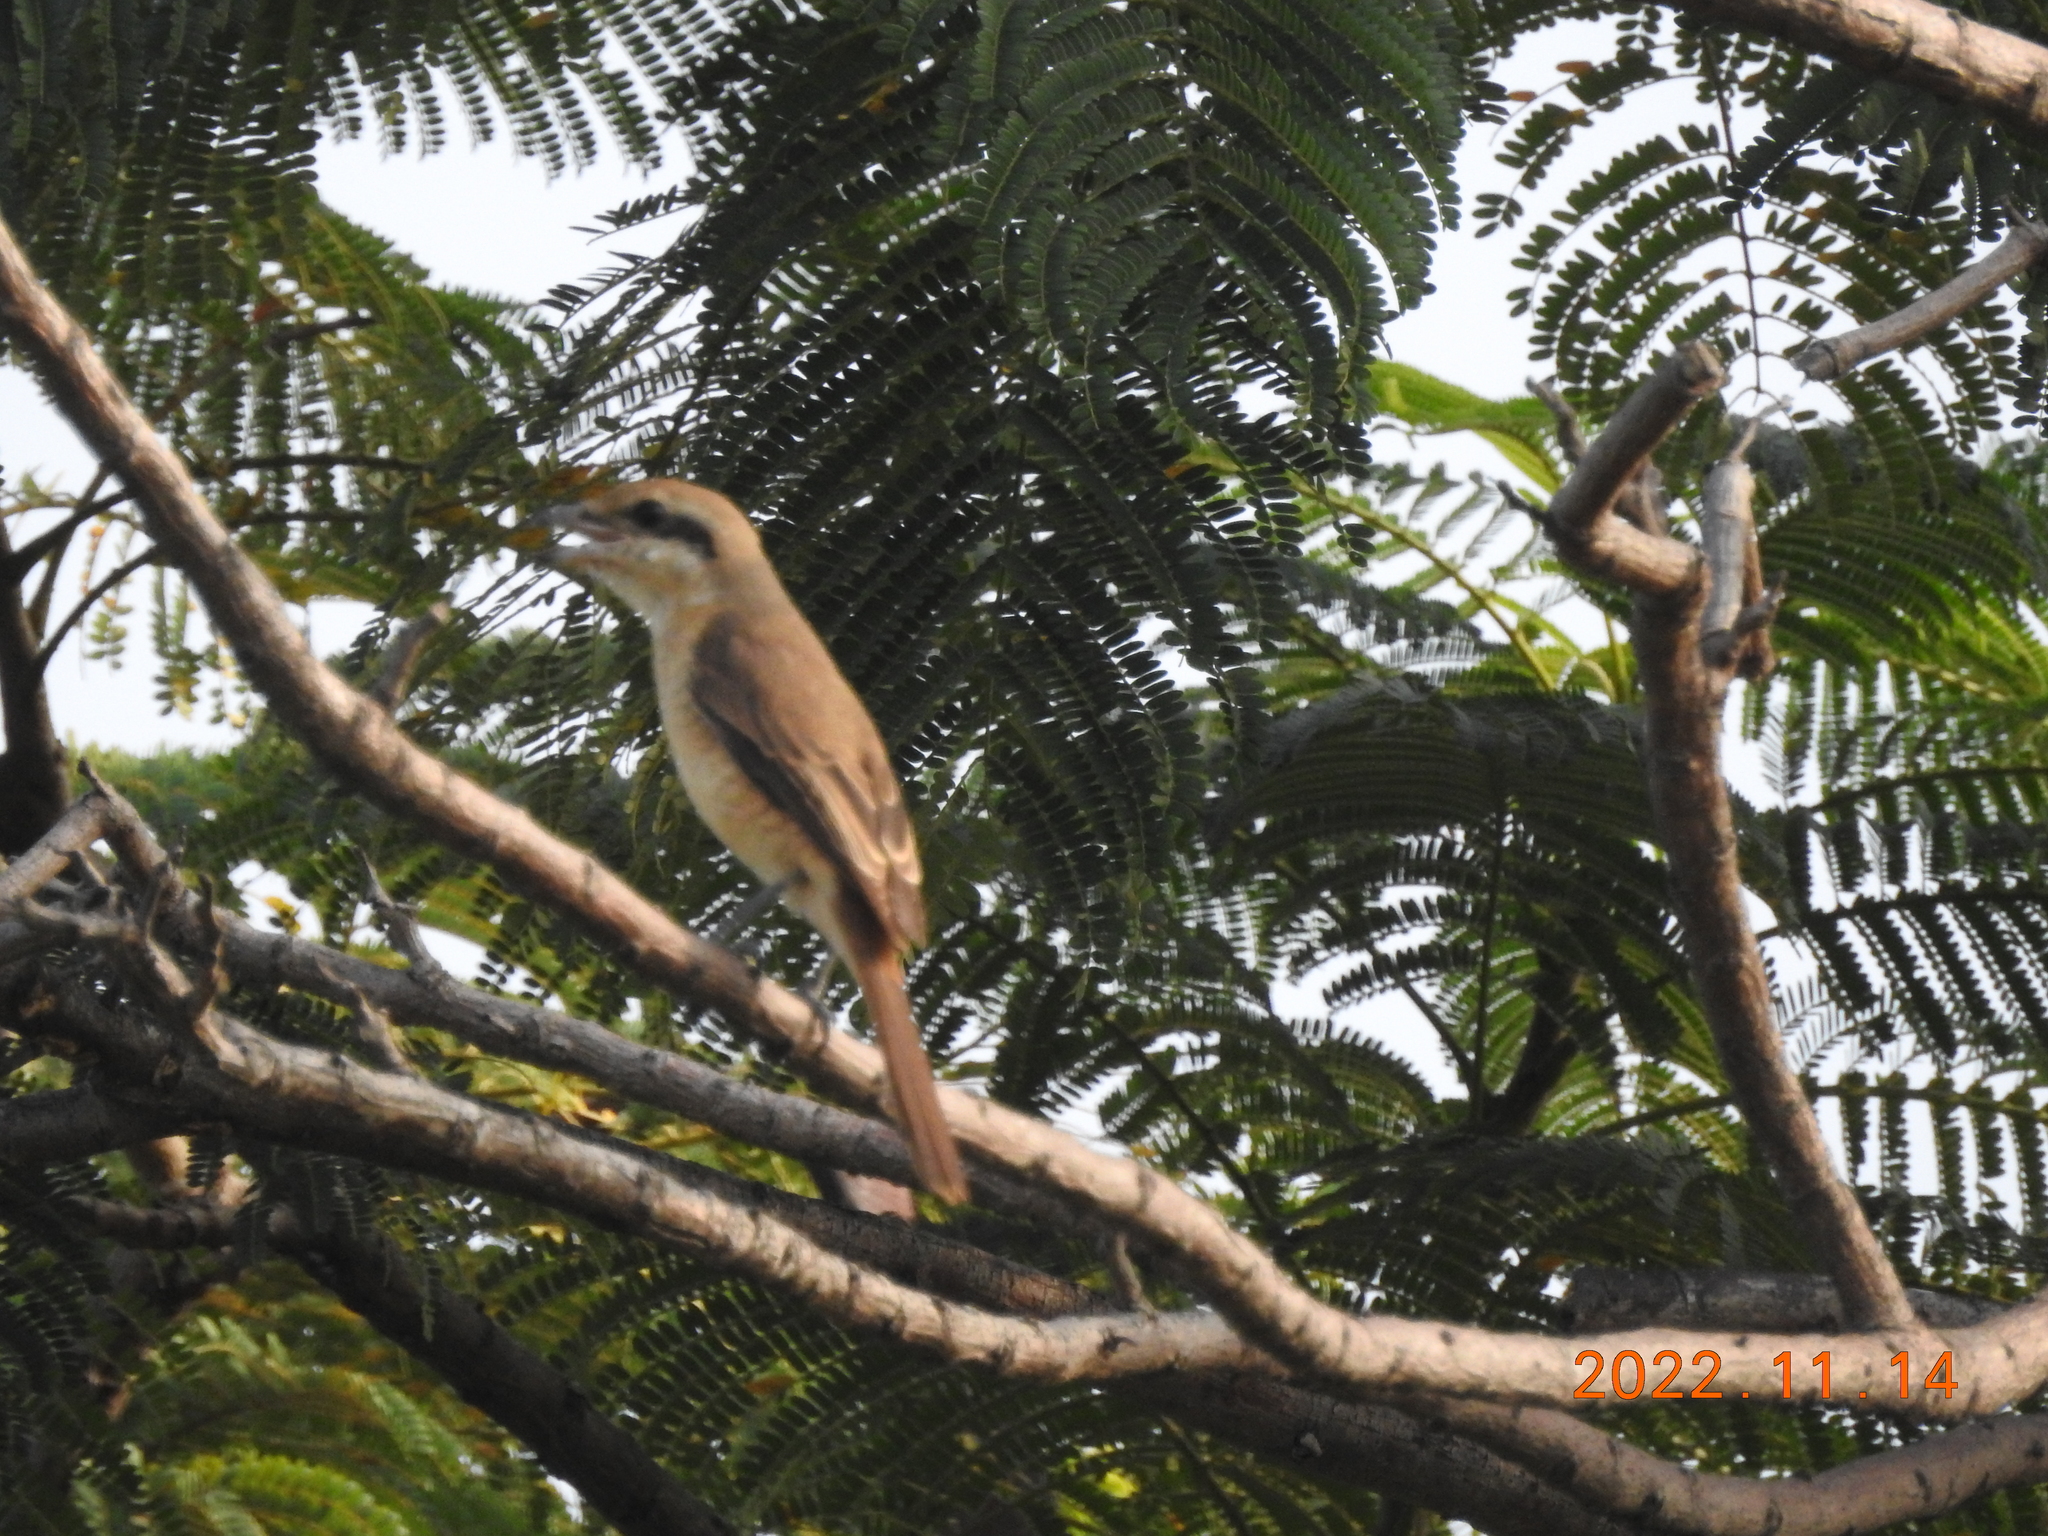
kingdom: Animalia
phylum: Chordata
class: Aves
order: Passeriformes
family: Laniidae
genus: Lanius
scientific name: Lanius cristatus
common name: Brown shrike
